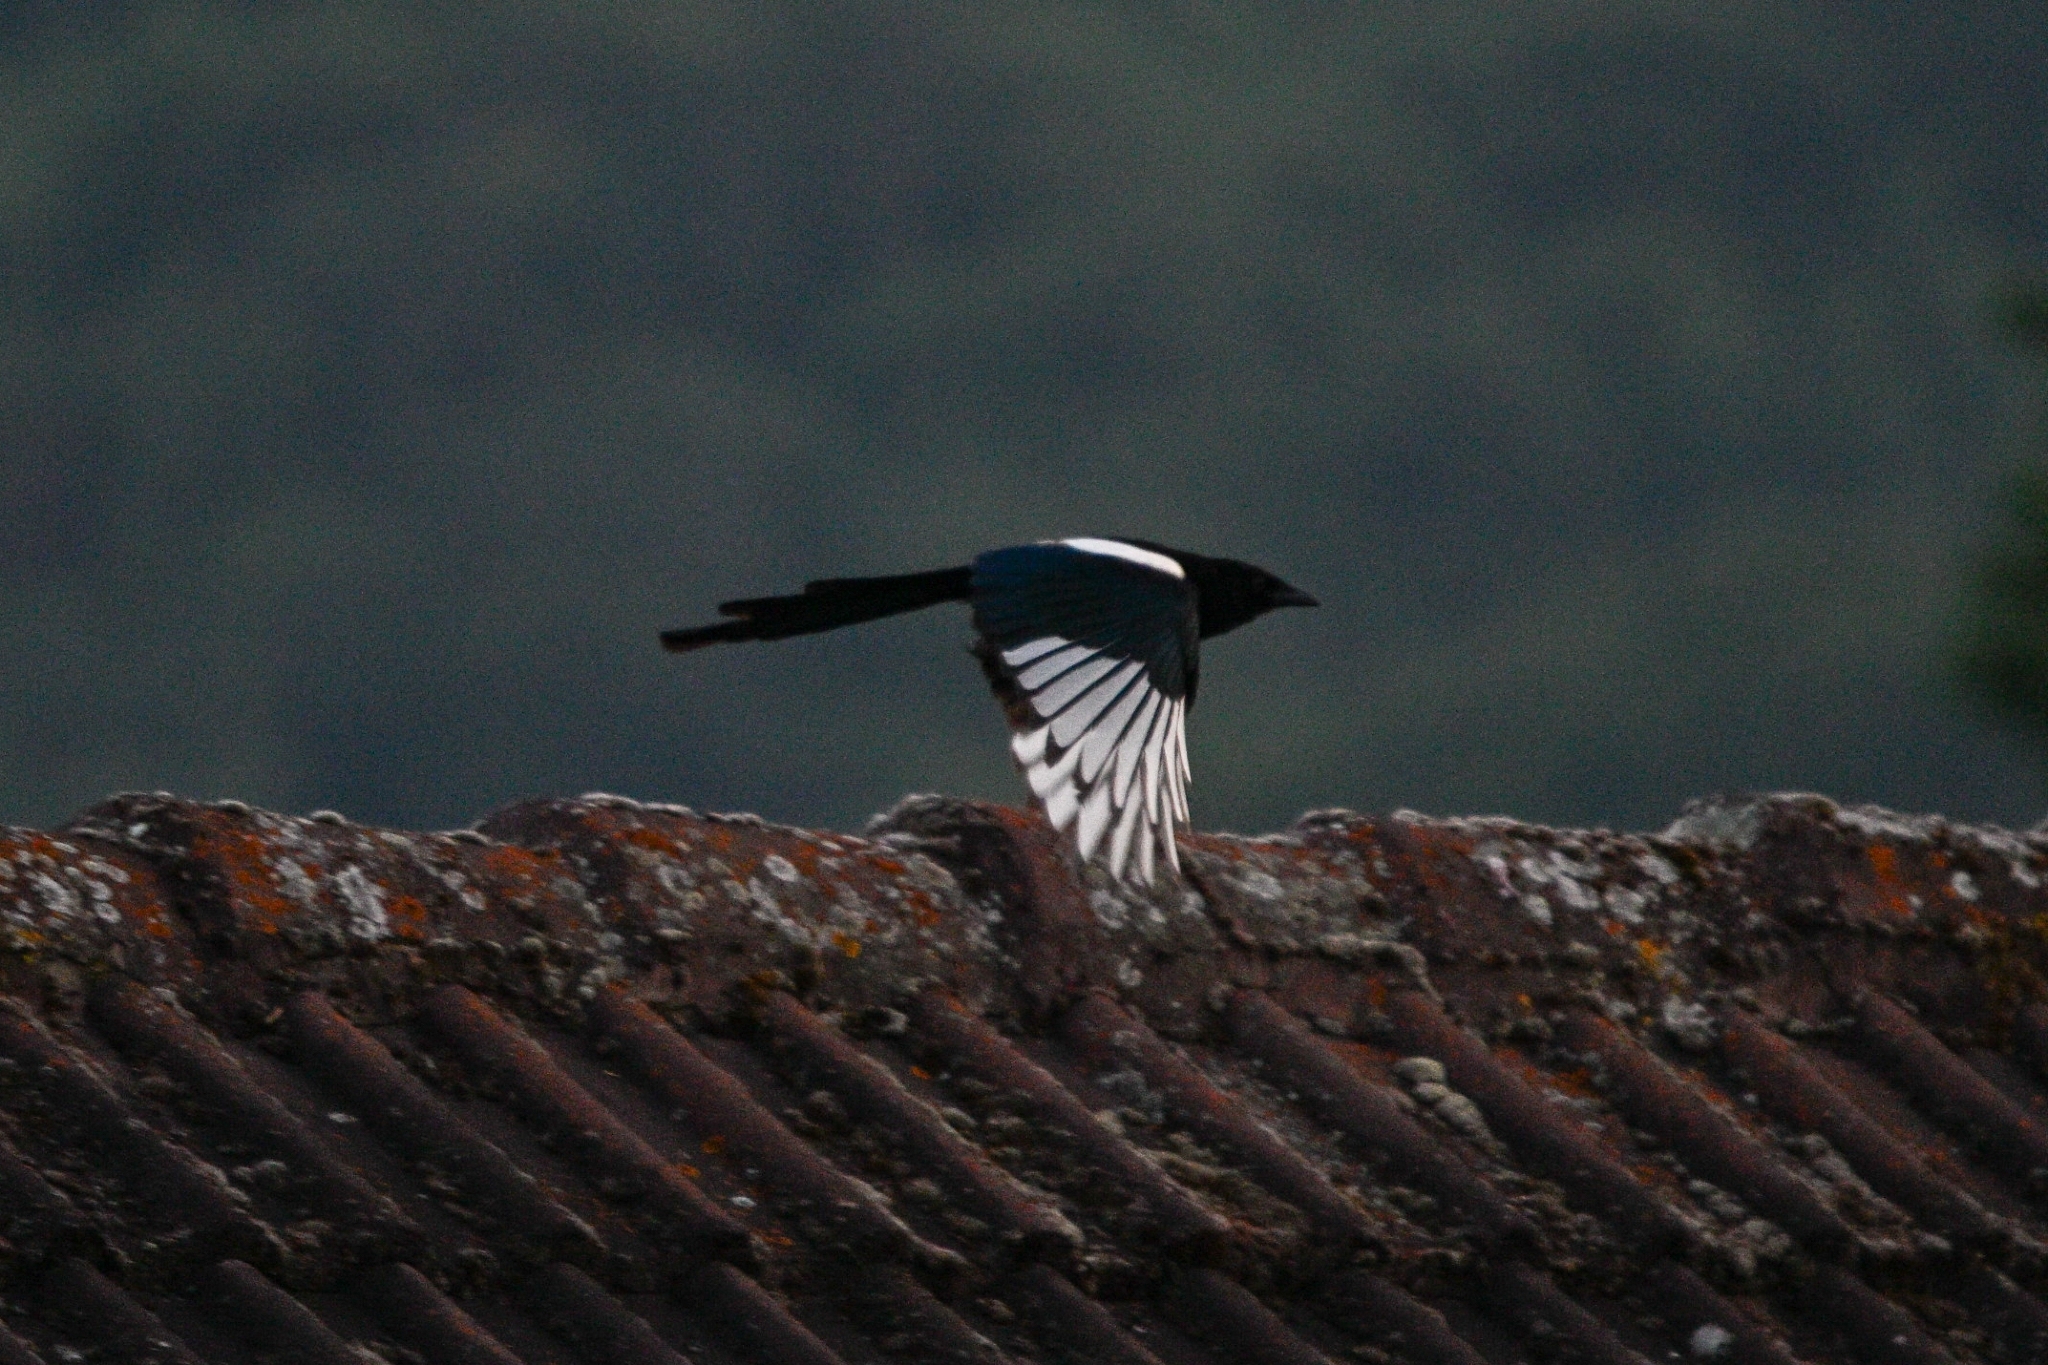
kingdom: Animalia
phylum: Chordata
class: Aves
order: Passeriformes
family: Corvidae
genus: Pica
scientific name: Pica pica
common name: Eurasian magpie
